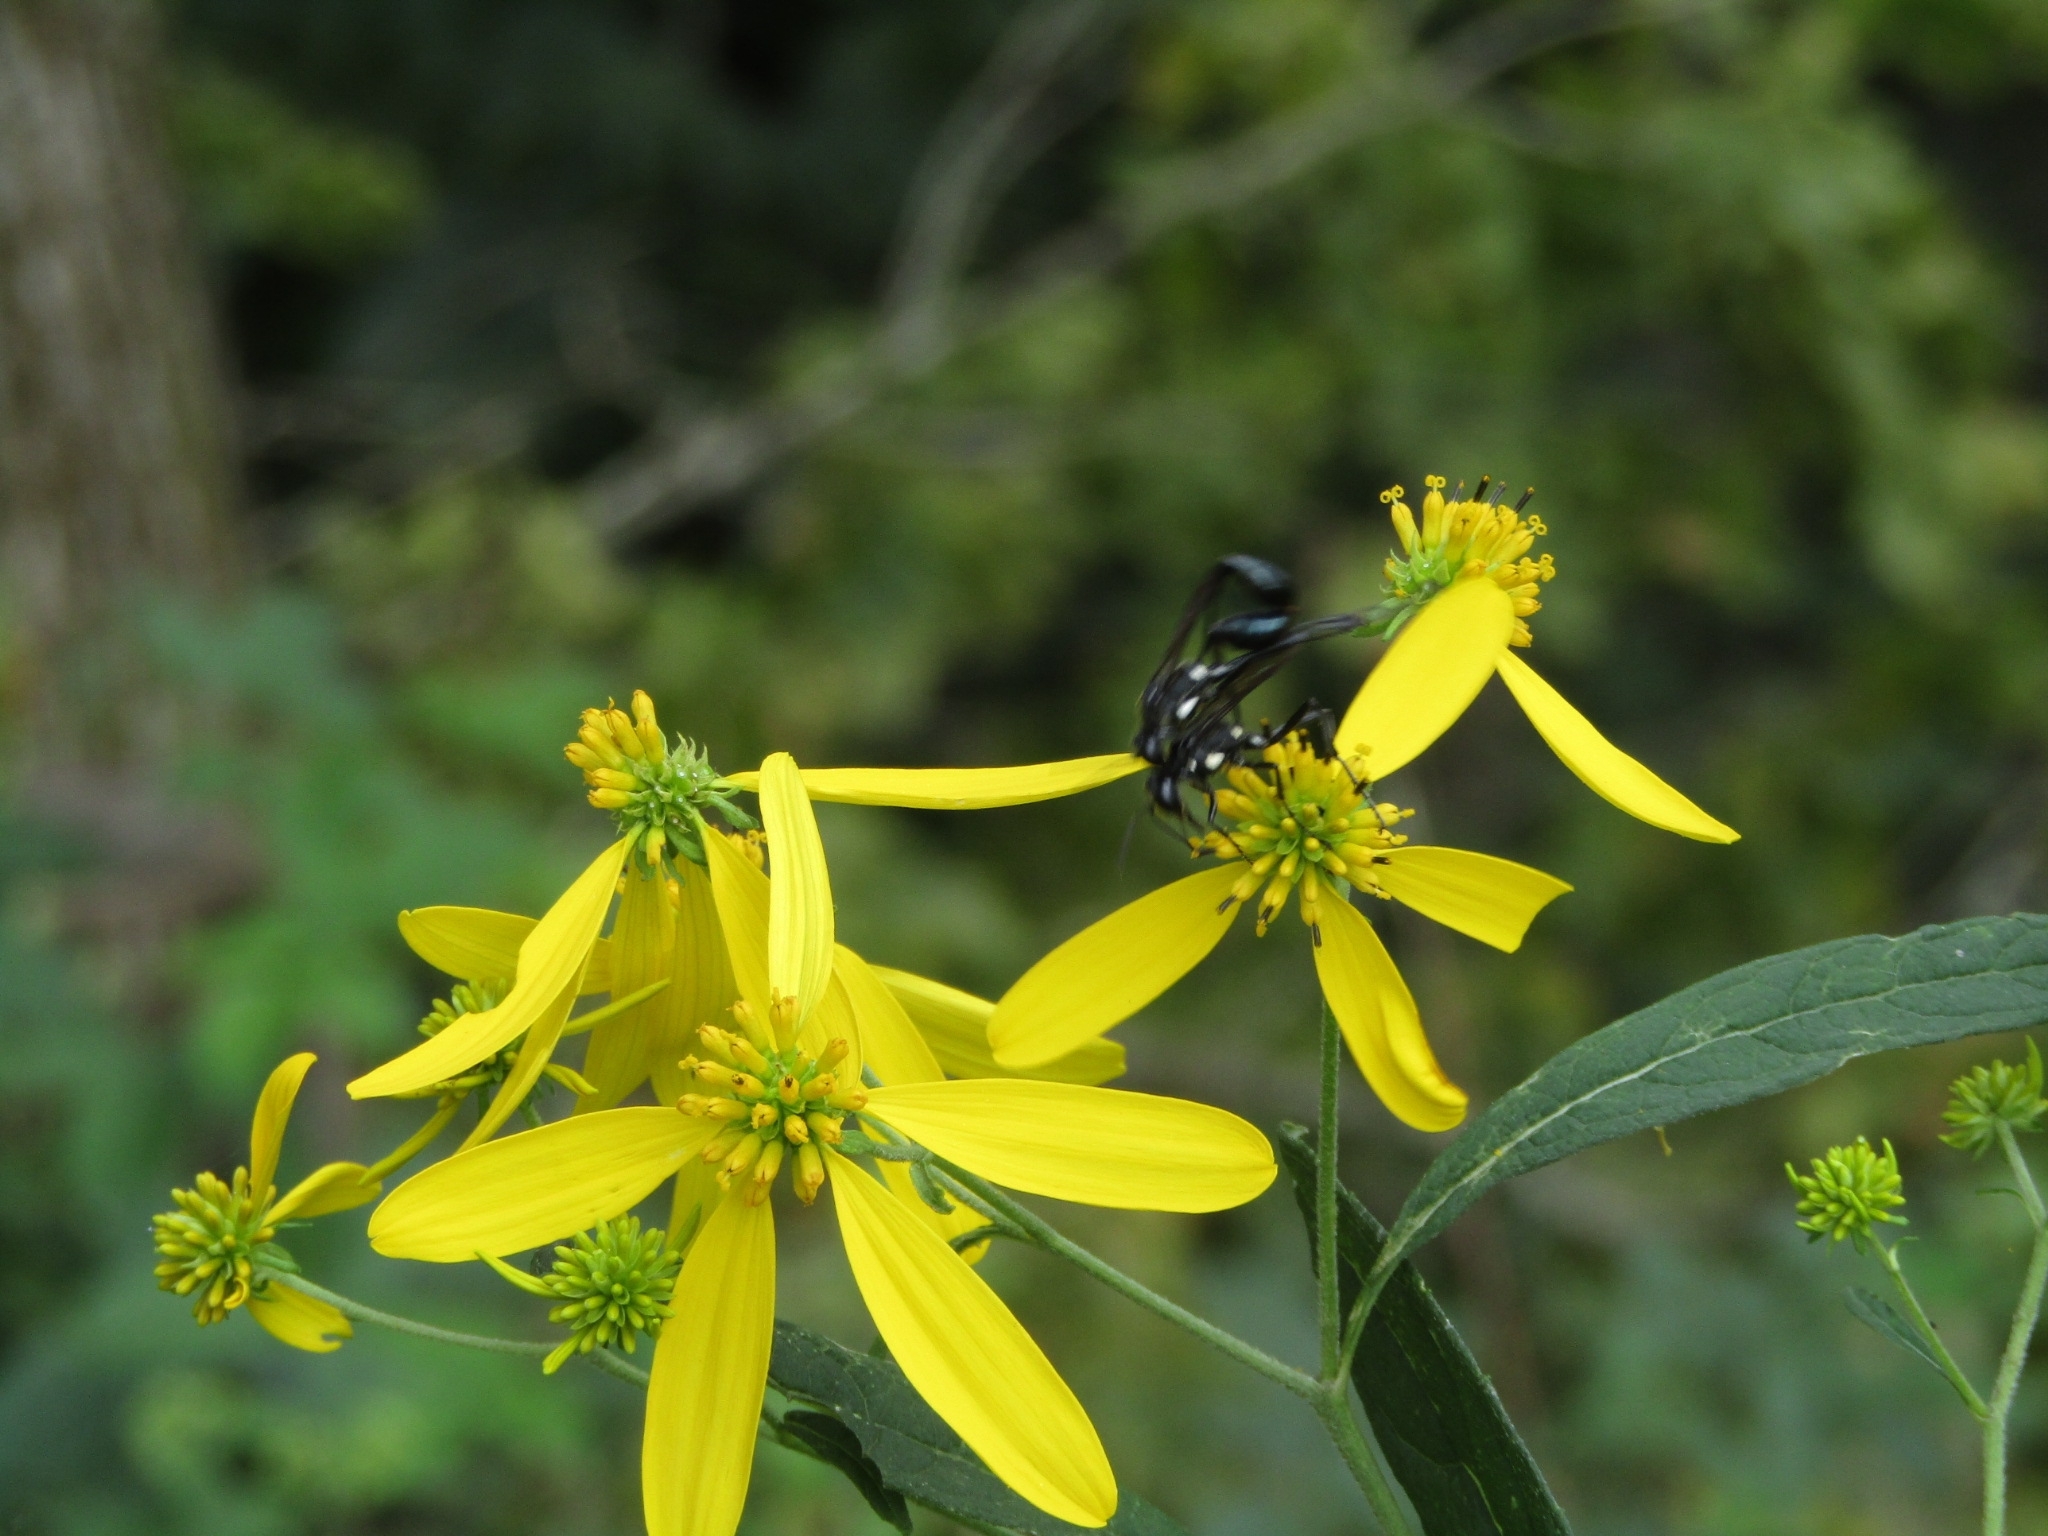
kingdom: Animalia
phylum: Arthropoda
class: Insecta
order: Hymenoptera
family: Sphecidae
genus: Eremnophila
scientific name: Eremnophila aureonotata
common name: Gold-marked thread-waisted wasp
